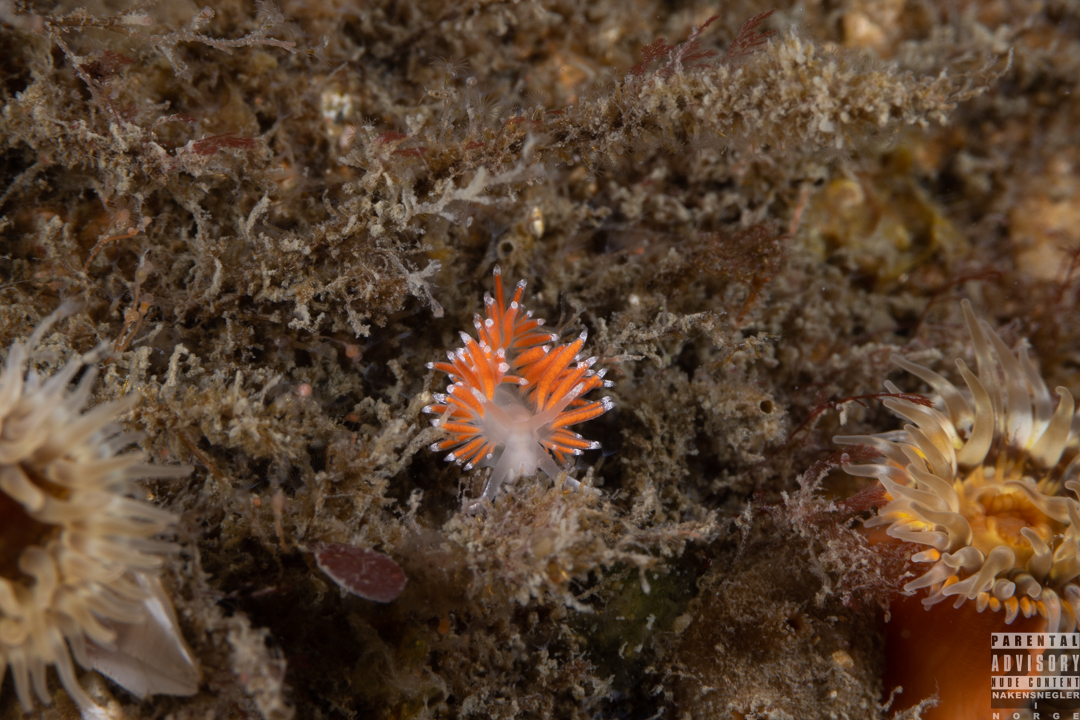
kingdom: Animalia
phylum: Mollusca
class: Gastropoda
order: Nudibranchia
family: Coryphellidae
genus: Coryphella
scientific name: Coryphella gracilis
